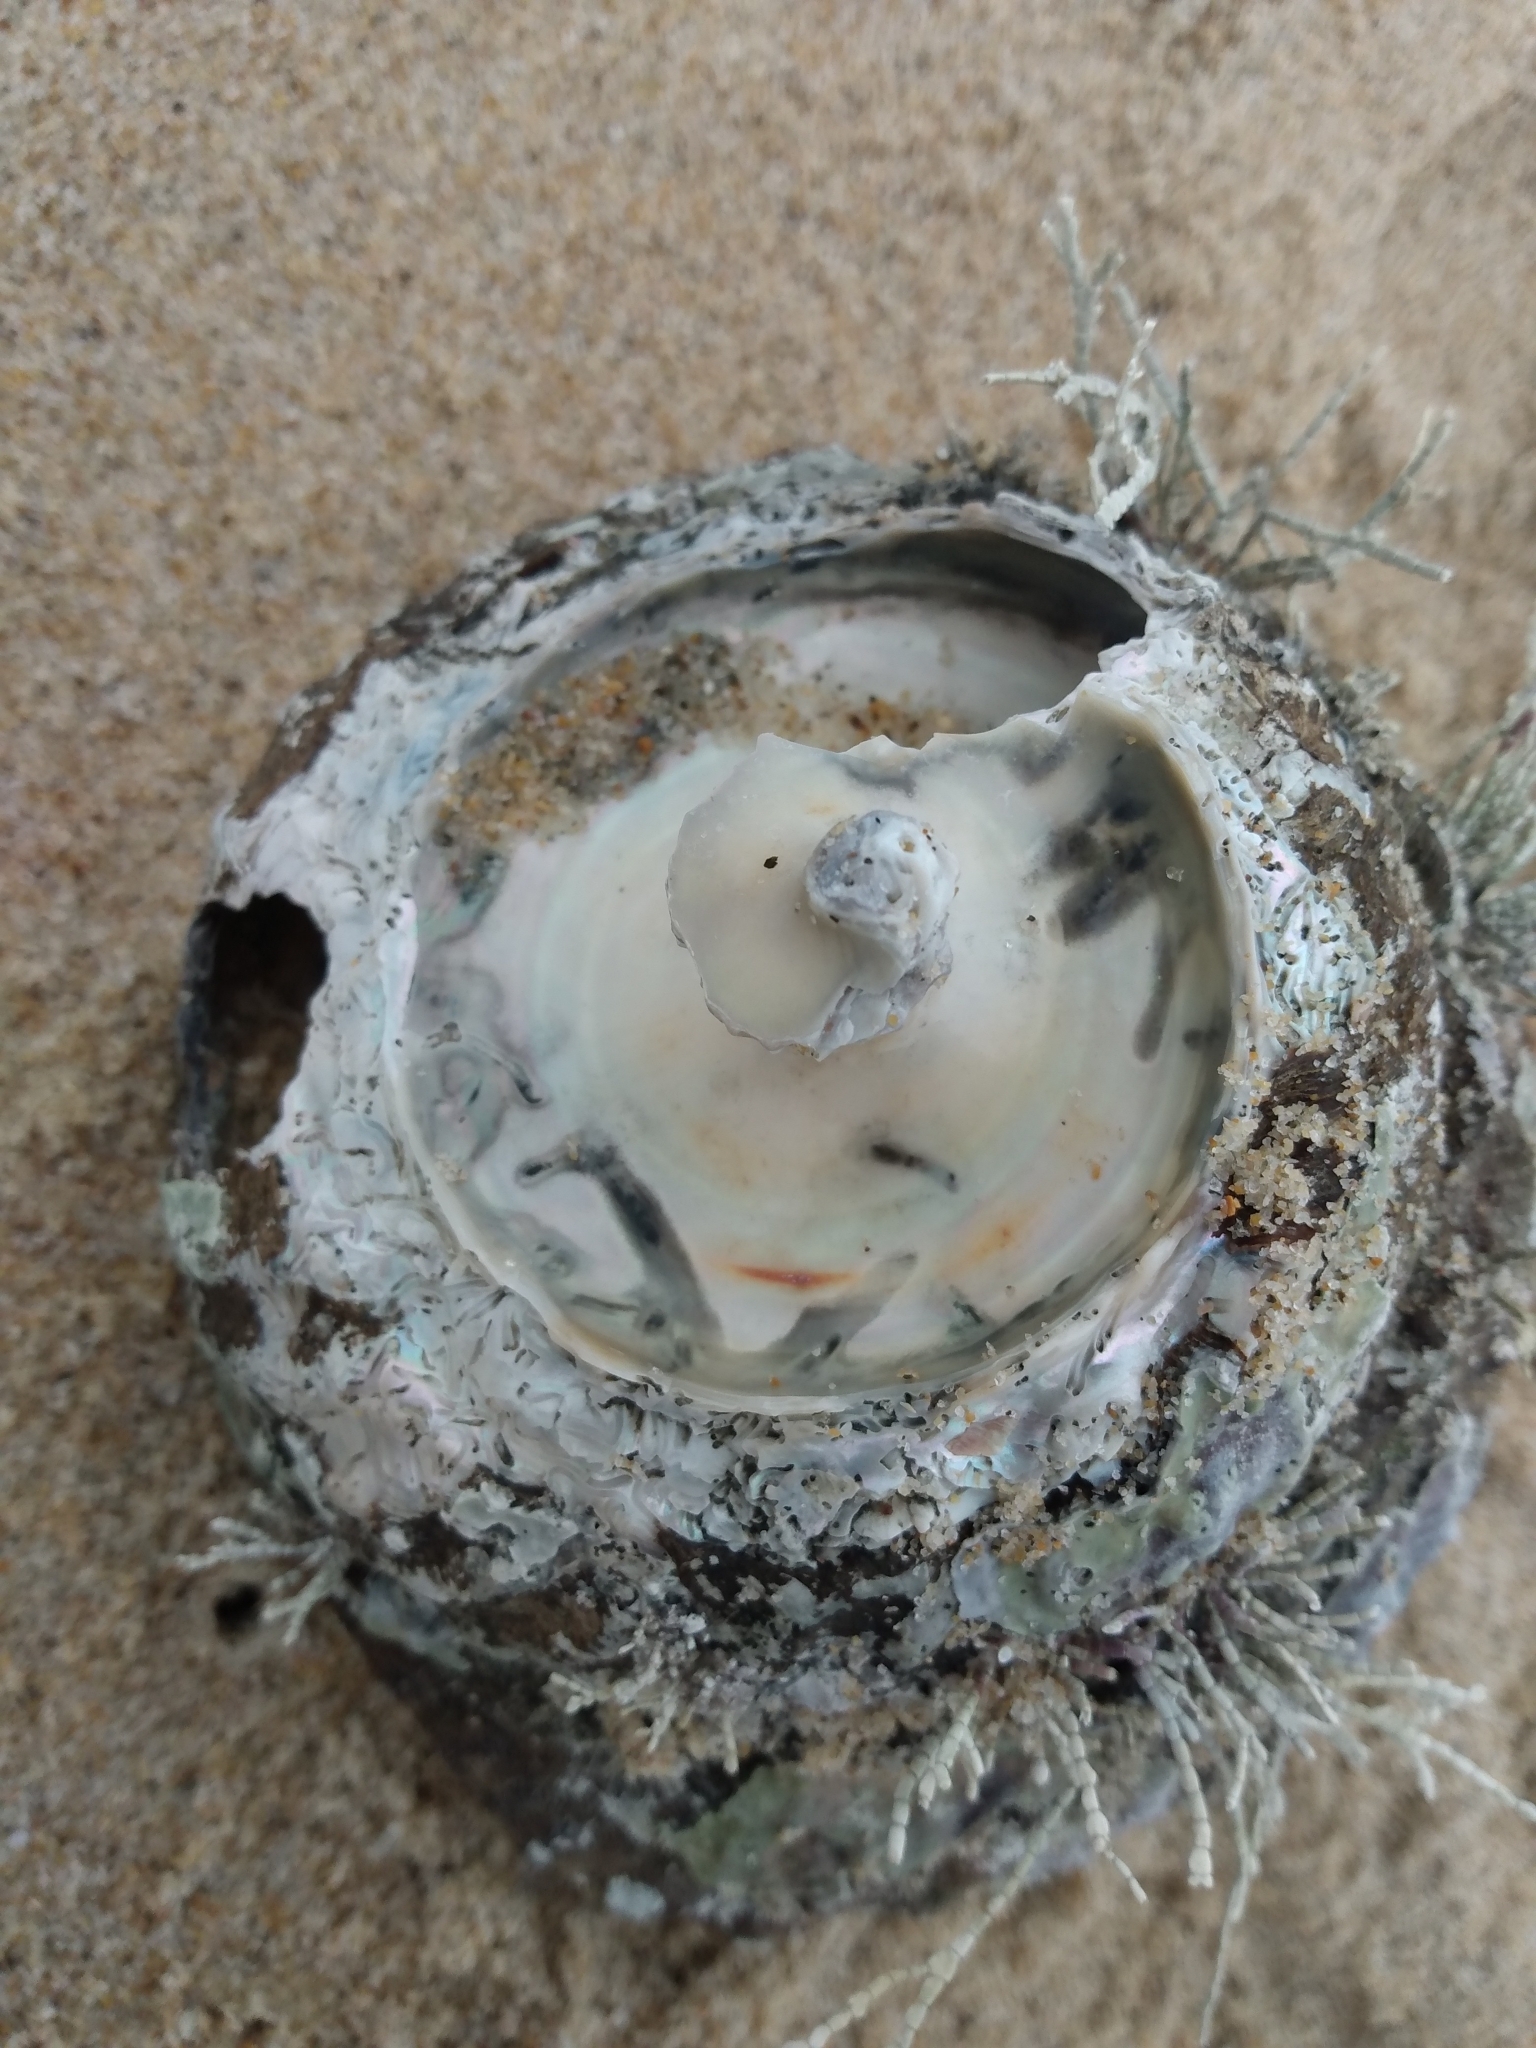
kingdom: Animalia
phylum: Mollusca
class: Gastropoda
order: Trochida
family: Turbinidae
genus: Megastraea
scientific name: Megastraea undosa
